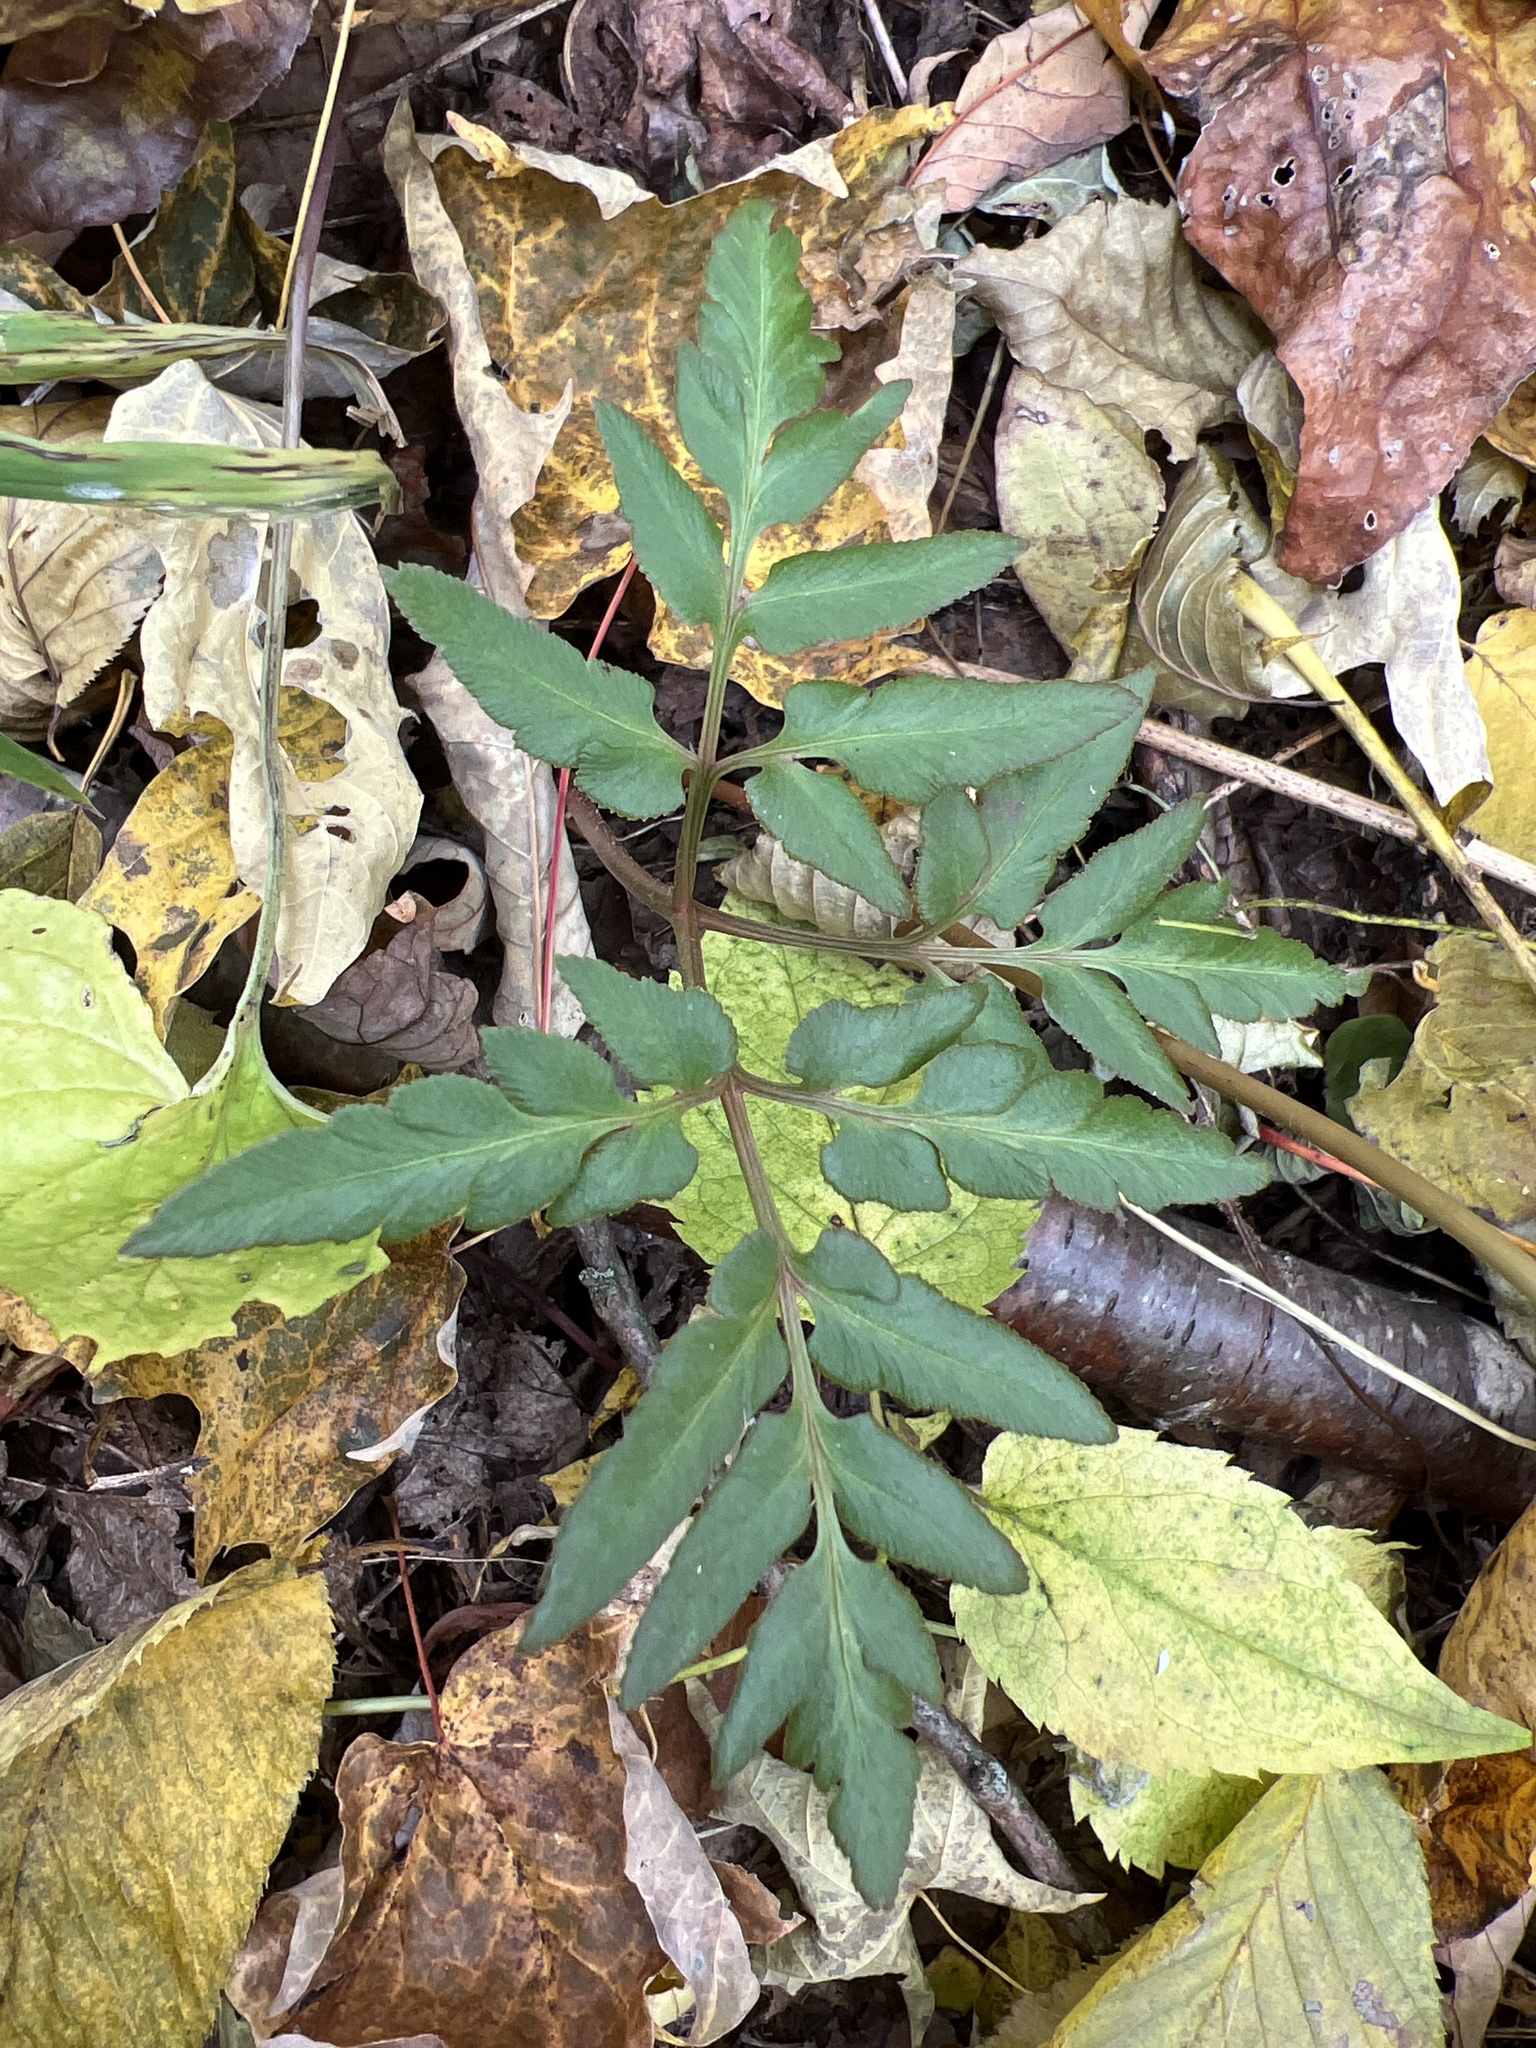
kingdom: Plantae
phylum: Tracheophyta
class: Polypodiopsida
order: Ophioglossales
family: Ophioglossaceae
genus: Sceptridium
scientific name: Sceptridium dissectum
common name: Cut-leaved grapefern
